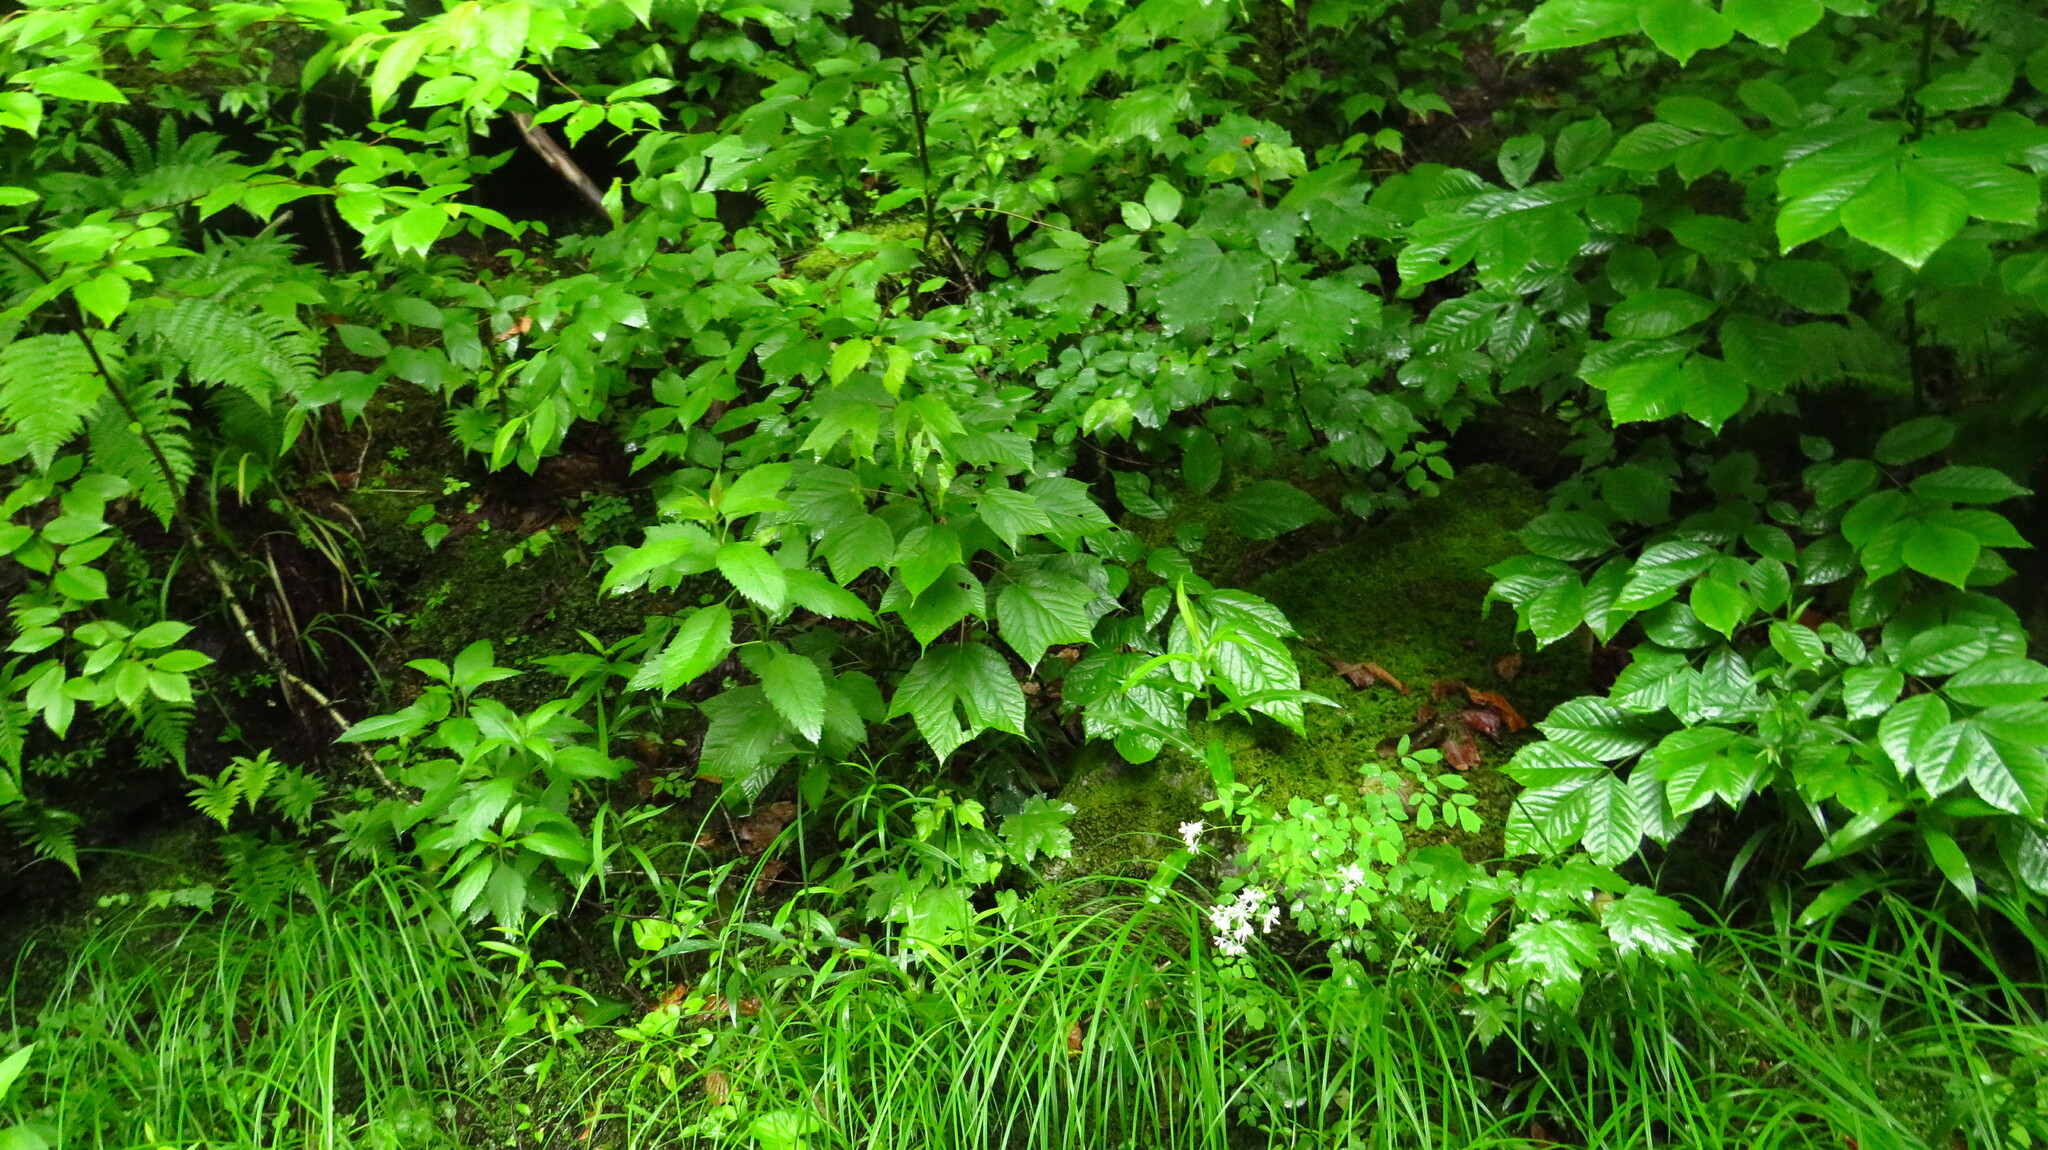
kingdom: Plantae
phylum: Tracheophyta
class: Magnoliopsida
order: Sapindales
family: Sapindaceae
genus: Acer
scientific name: Acer pensylvanicum
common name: Moosewood
